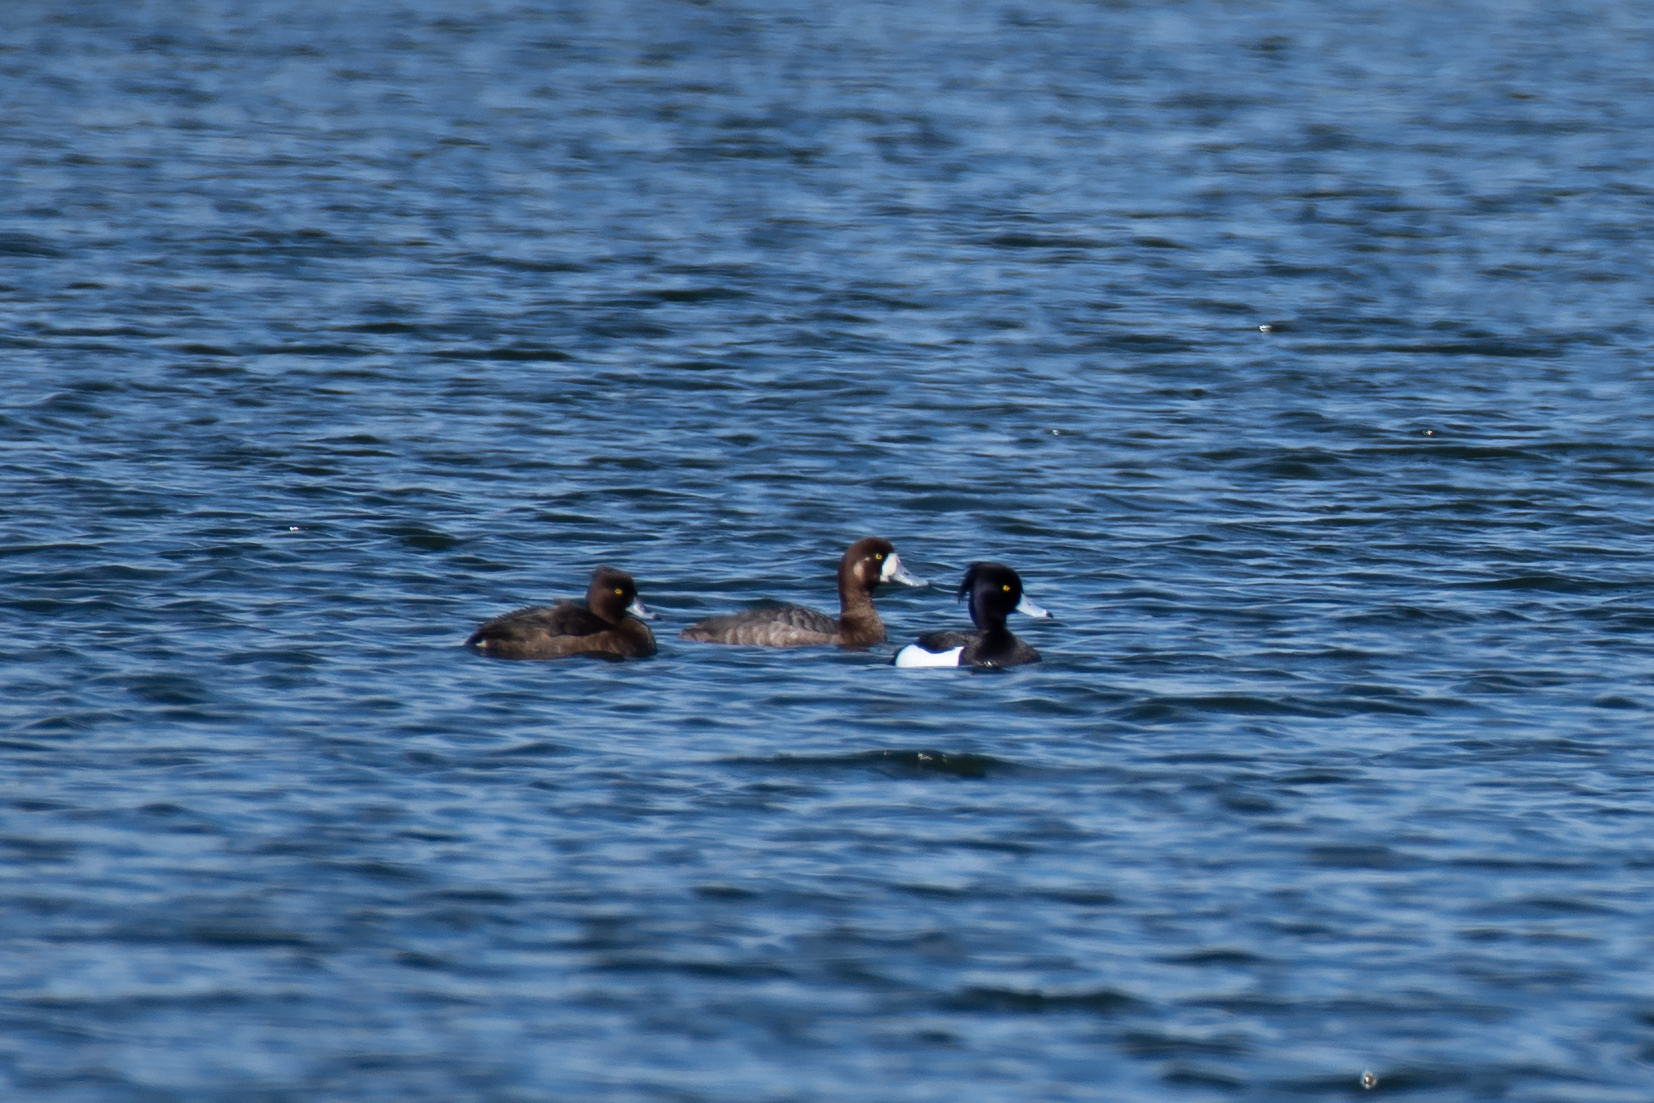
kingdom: Animalia
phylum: Chordata
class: Aves
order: Anseriformes
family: Anatidae
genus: Aythya
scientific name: Aythya marila
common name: Greater scaup
